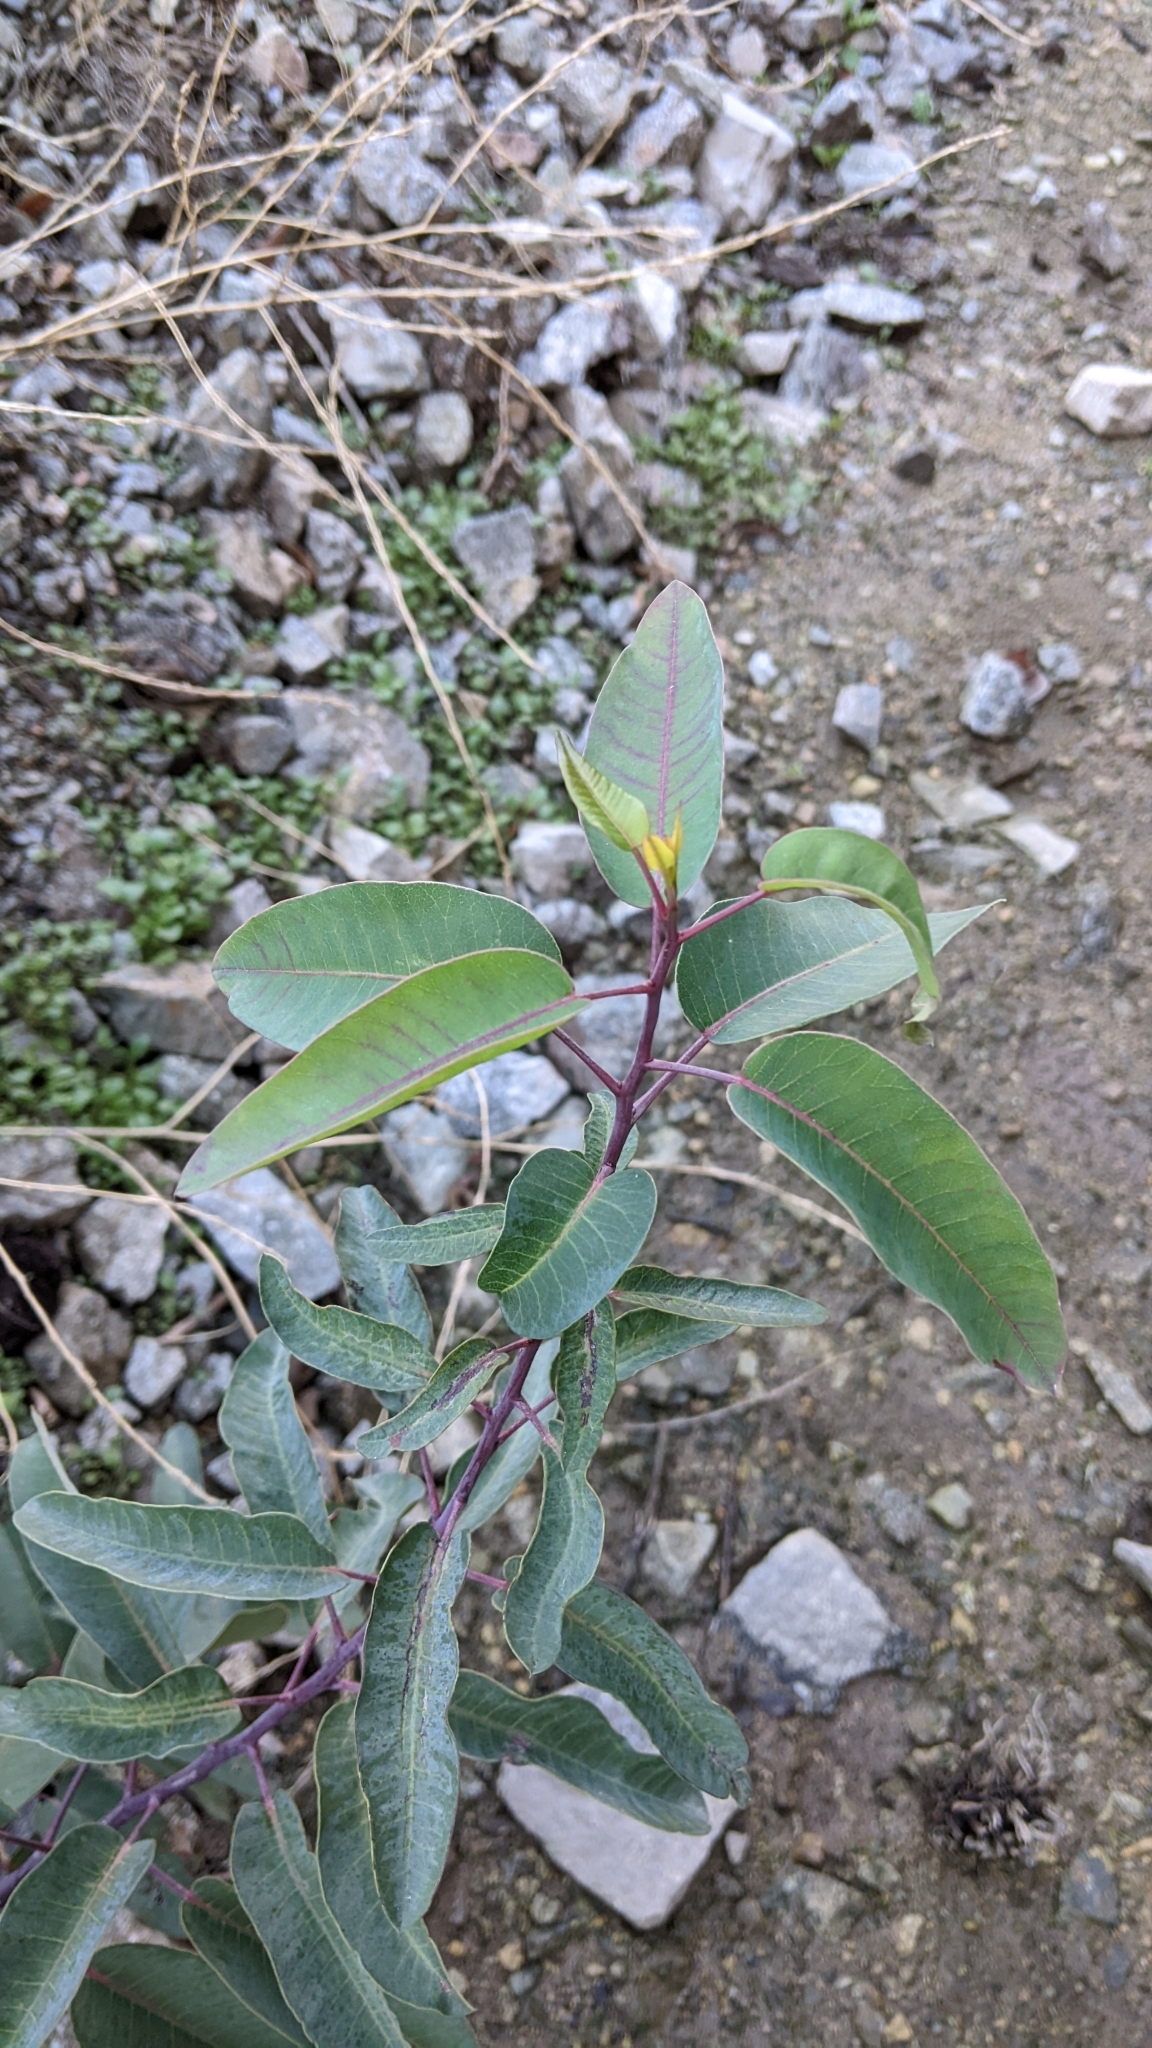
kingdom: Plantae
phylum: Tracheophyta
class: Magnoliopsida
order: Sapindales
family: Anacardiaceae
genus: Malosma
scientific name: Malosma laurina
